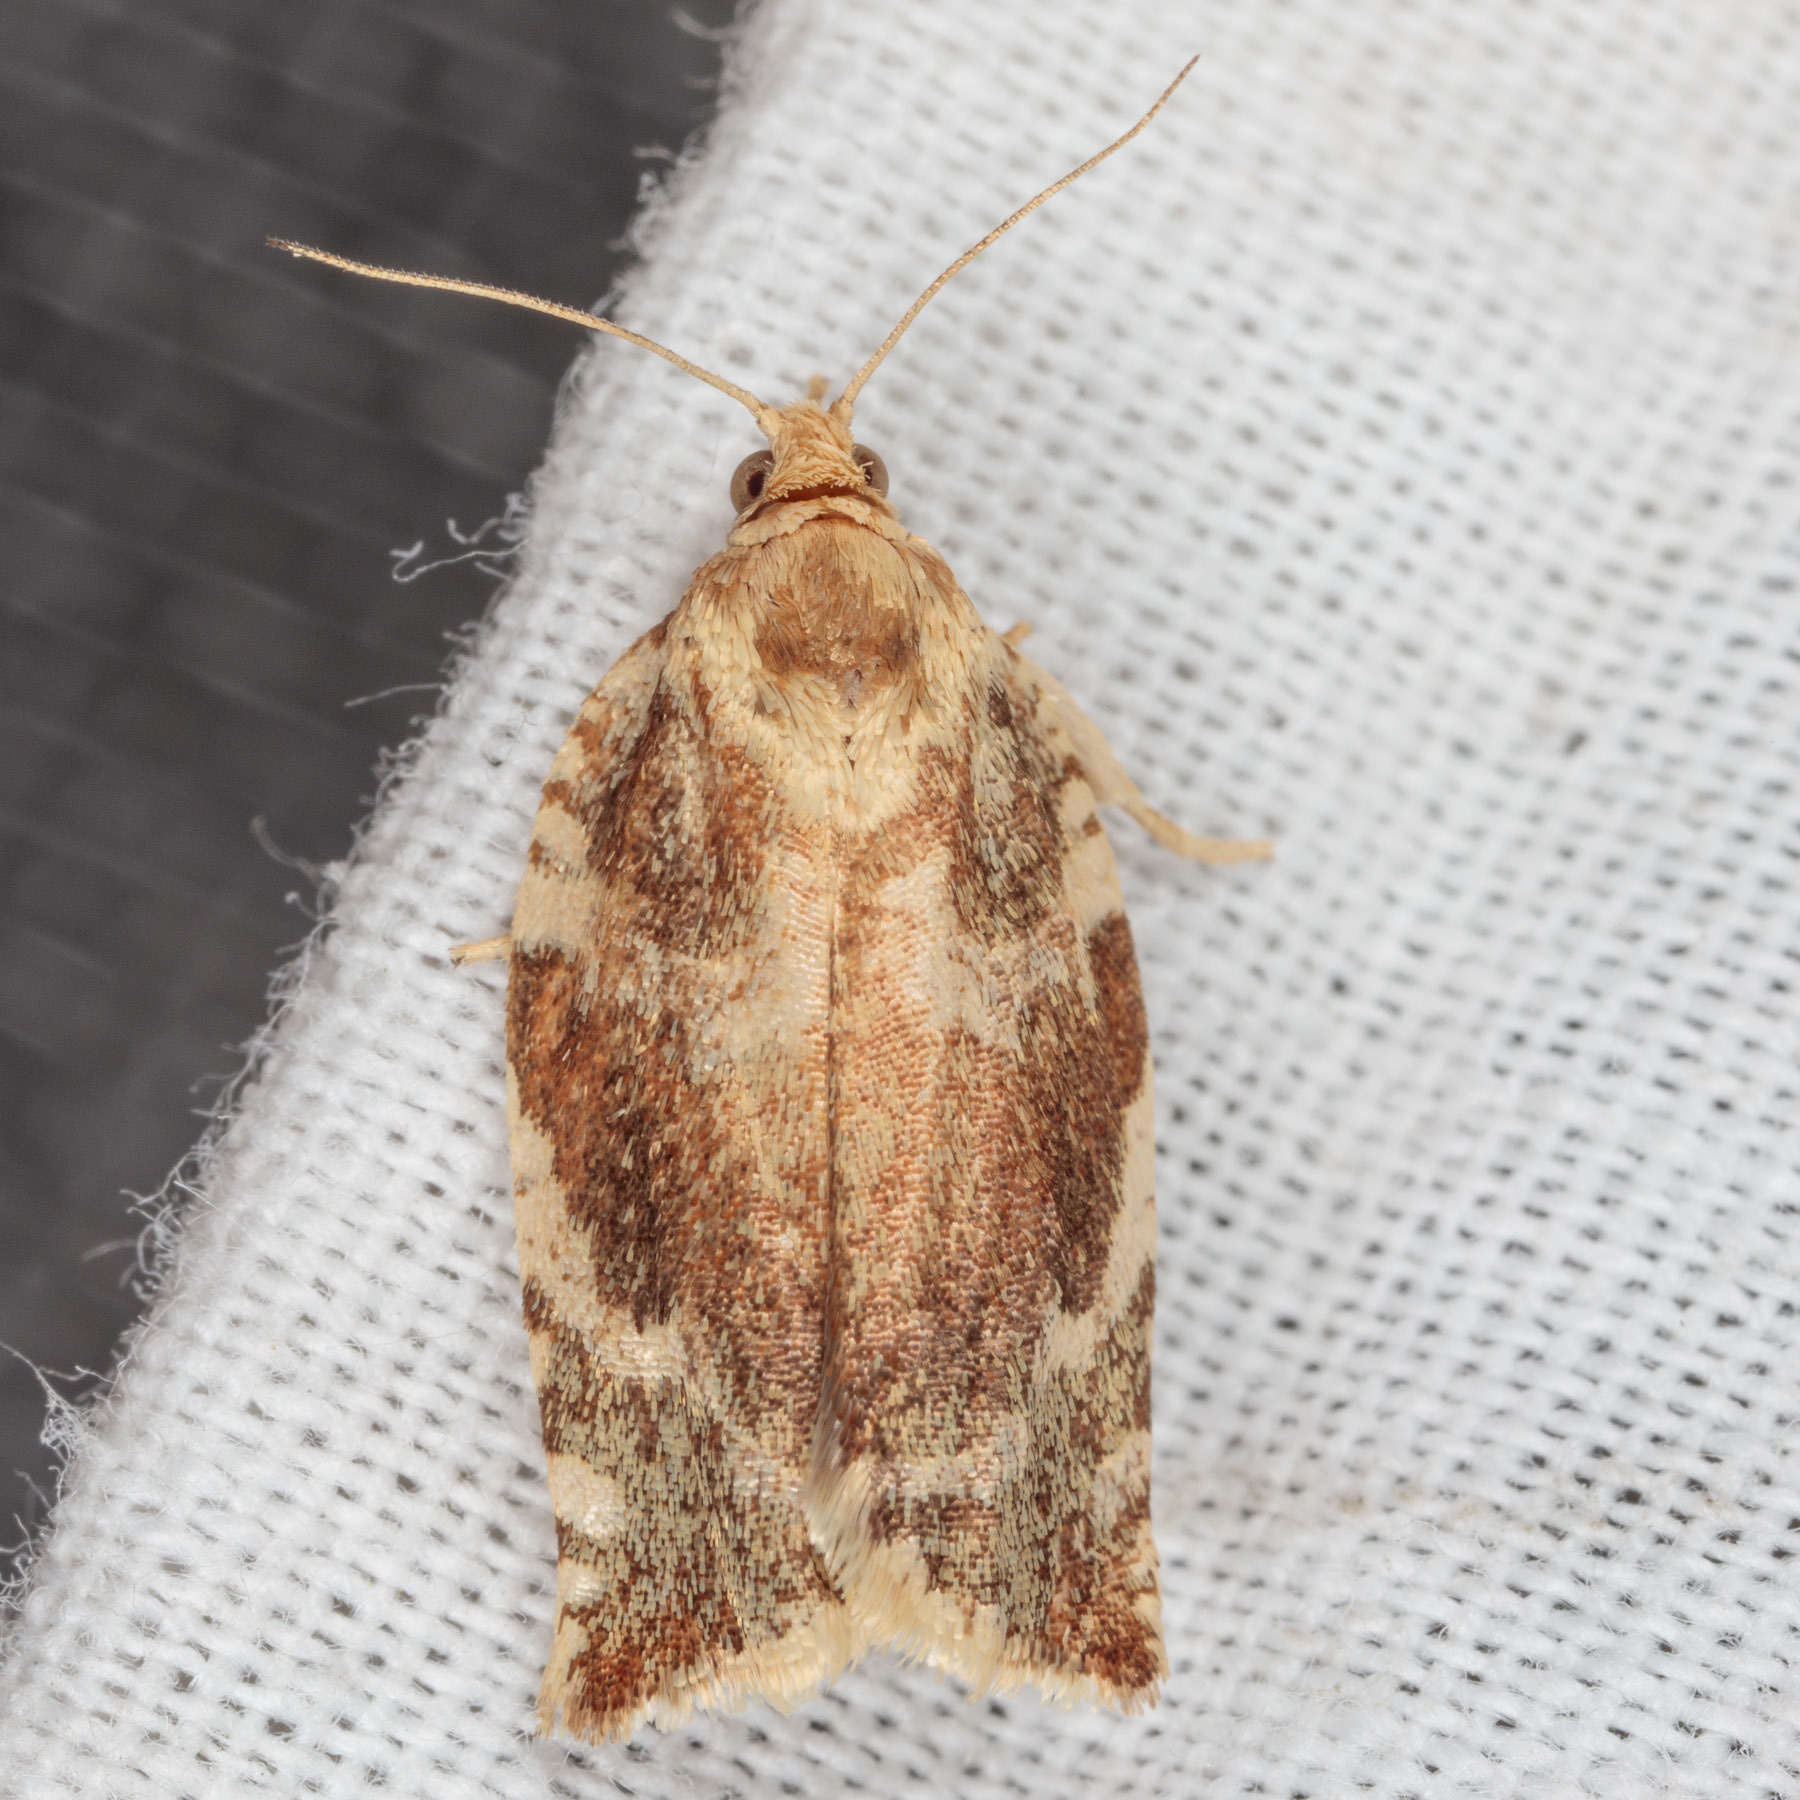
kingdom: Animalia
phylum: Arthropoda
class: Insecta
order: Lepidoptera
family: Tortricidae
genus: Archips
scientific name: Archips semiferanus
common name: Oak leafroller
